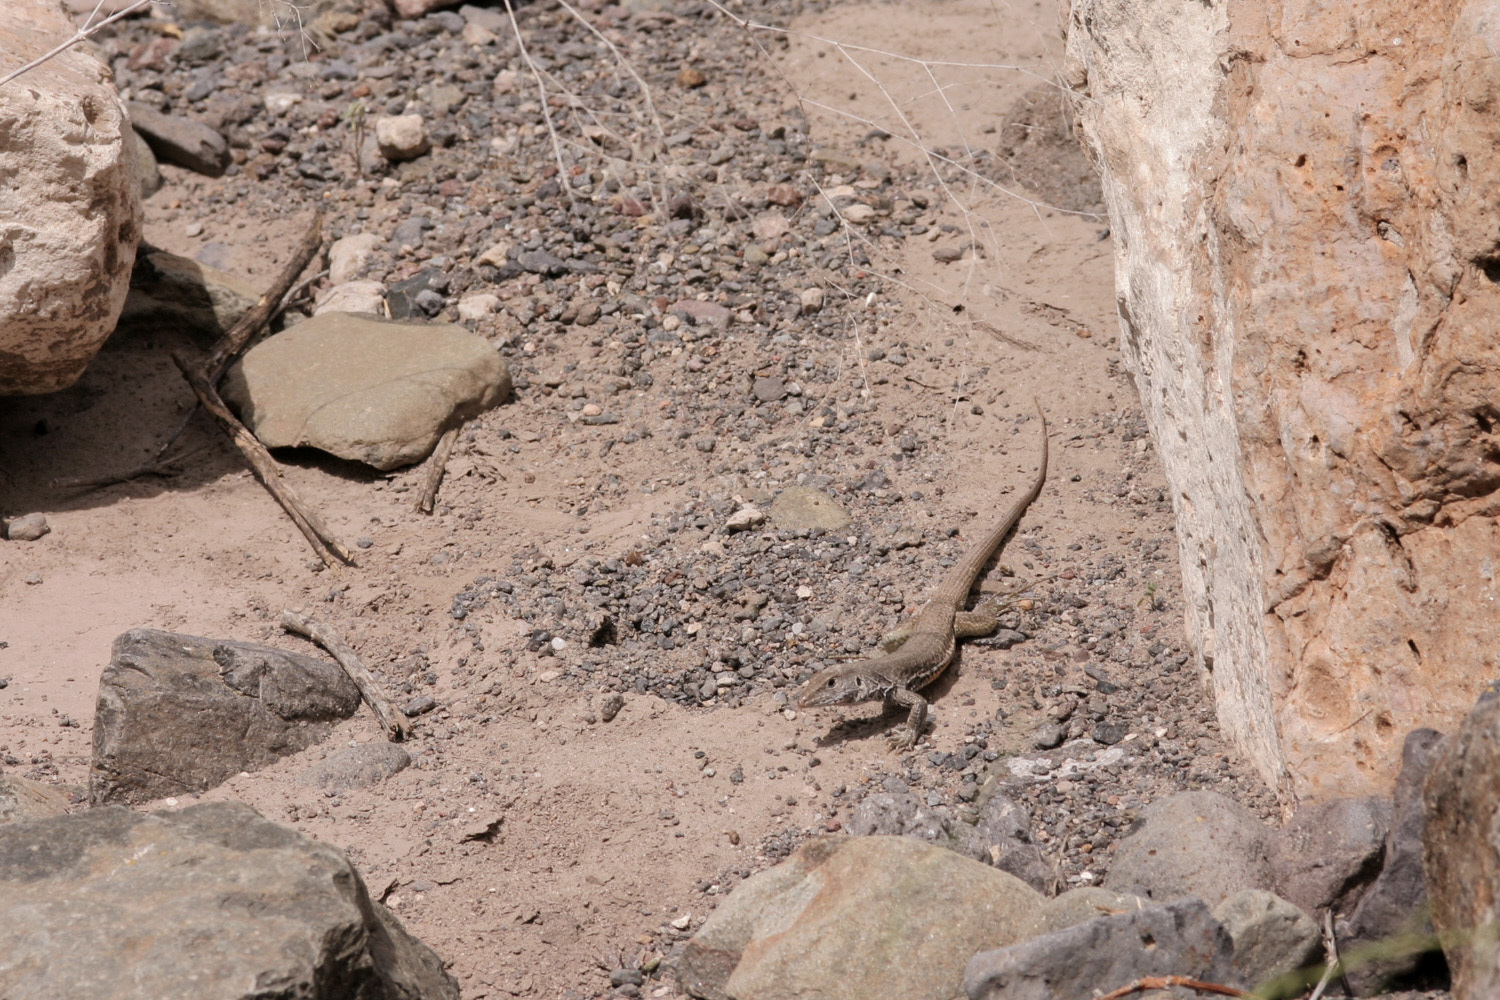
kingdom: Animalia
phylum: Chordata
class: Squamata
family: Teiidae
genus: Aspidoscelis
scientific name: Aspidoscelis marmoratus
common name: Eastern marbled whiptail [reticuloriens]
